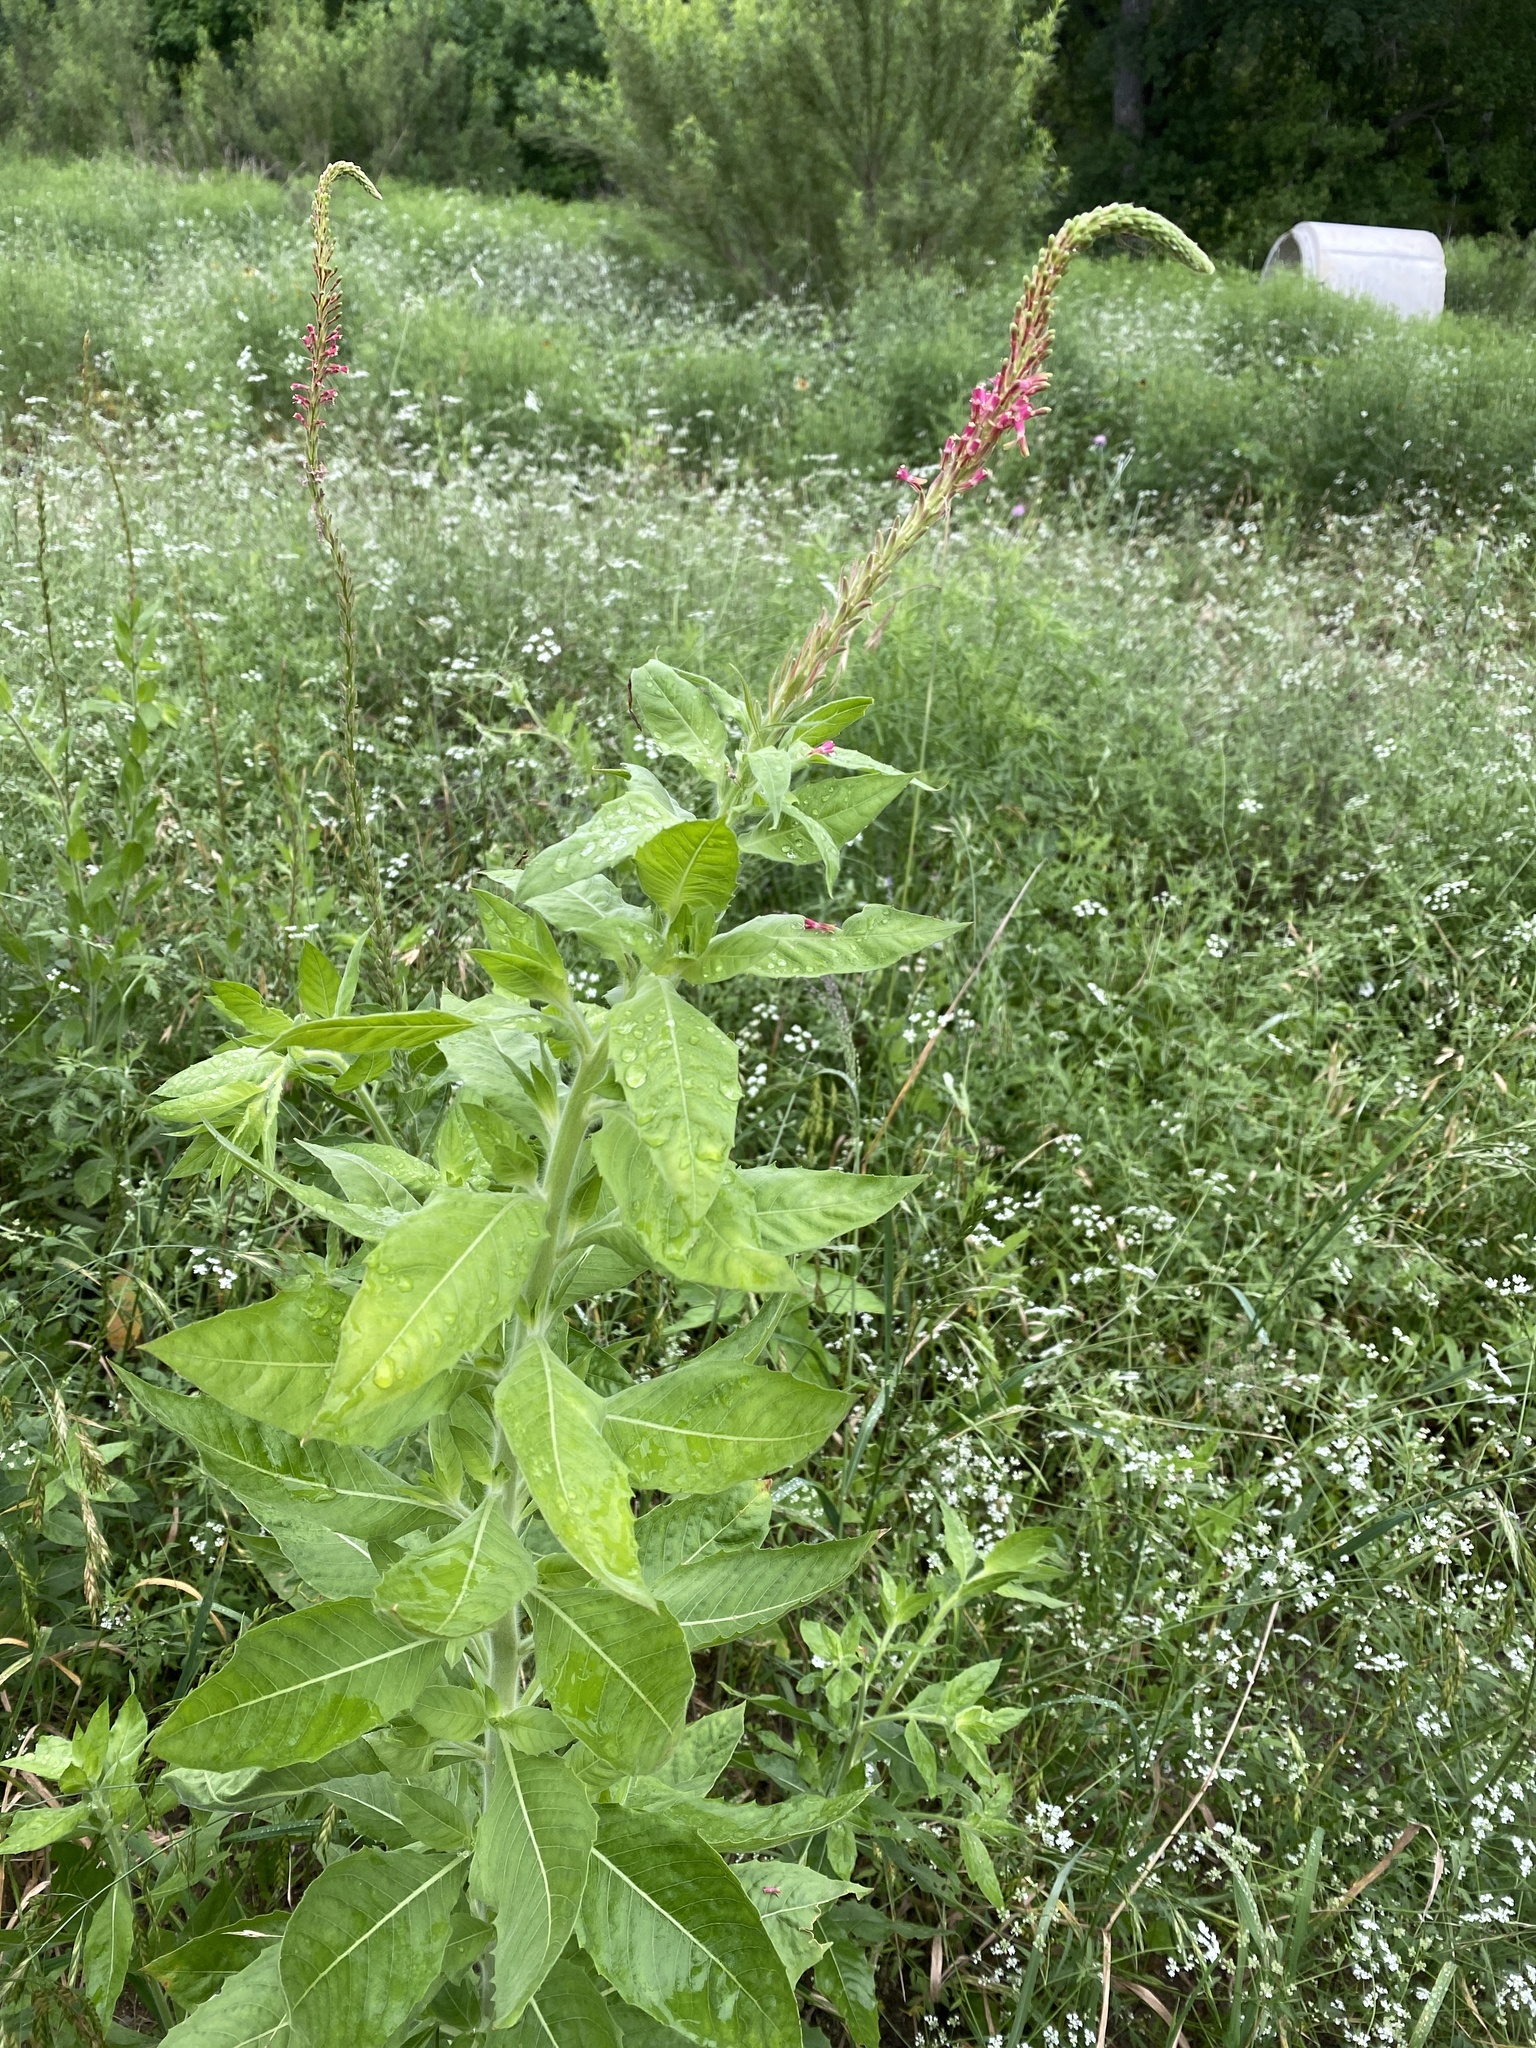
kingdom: Plantae
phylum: Tracheophyta
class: Magnoliopsida
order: Myrtales
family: Onagraceae
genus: Oenothera
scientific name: Oenothera curtiflora
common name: Velvetweed
